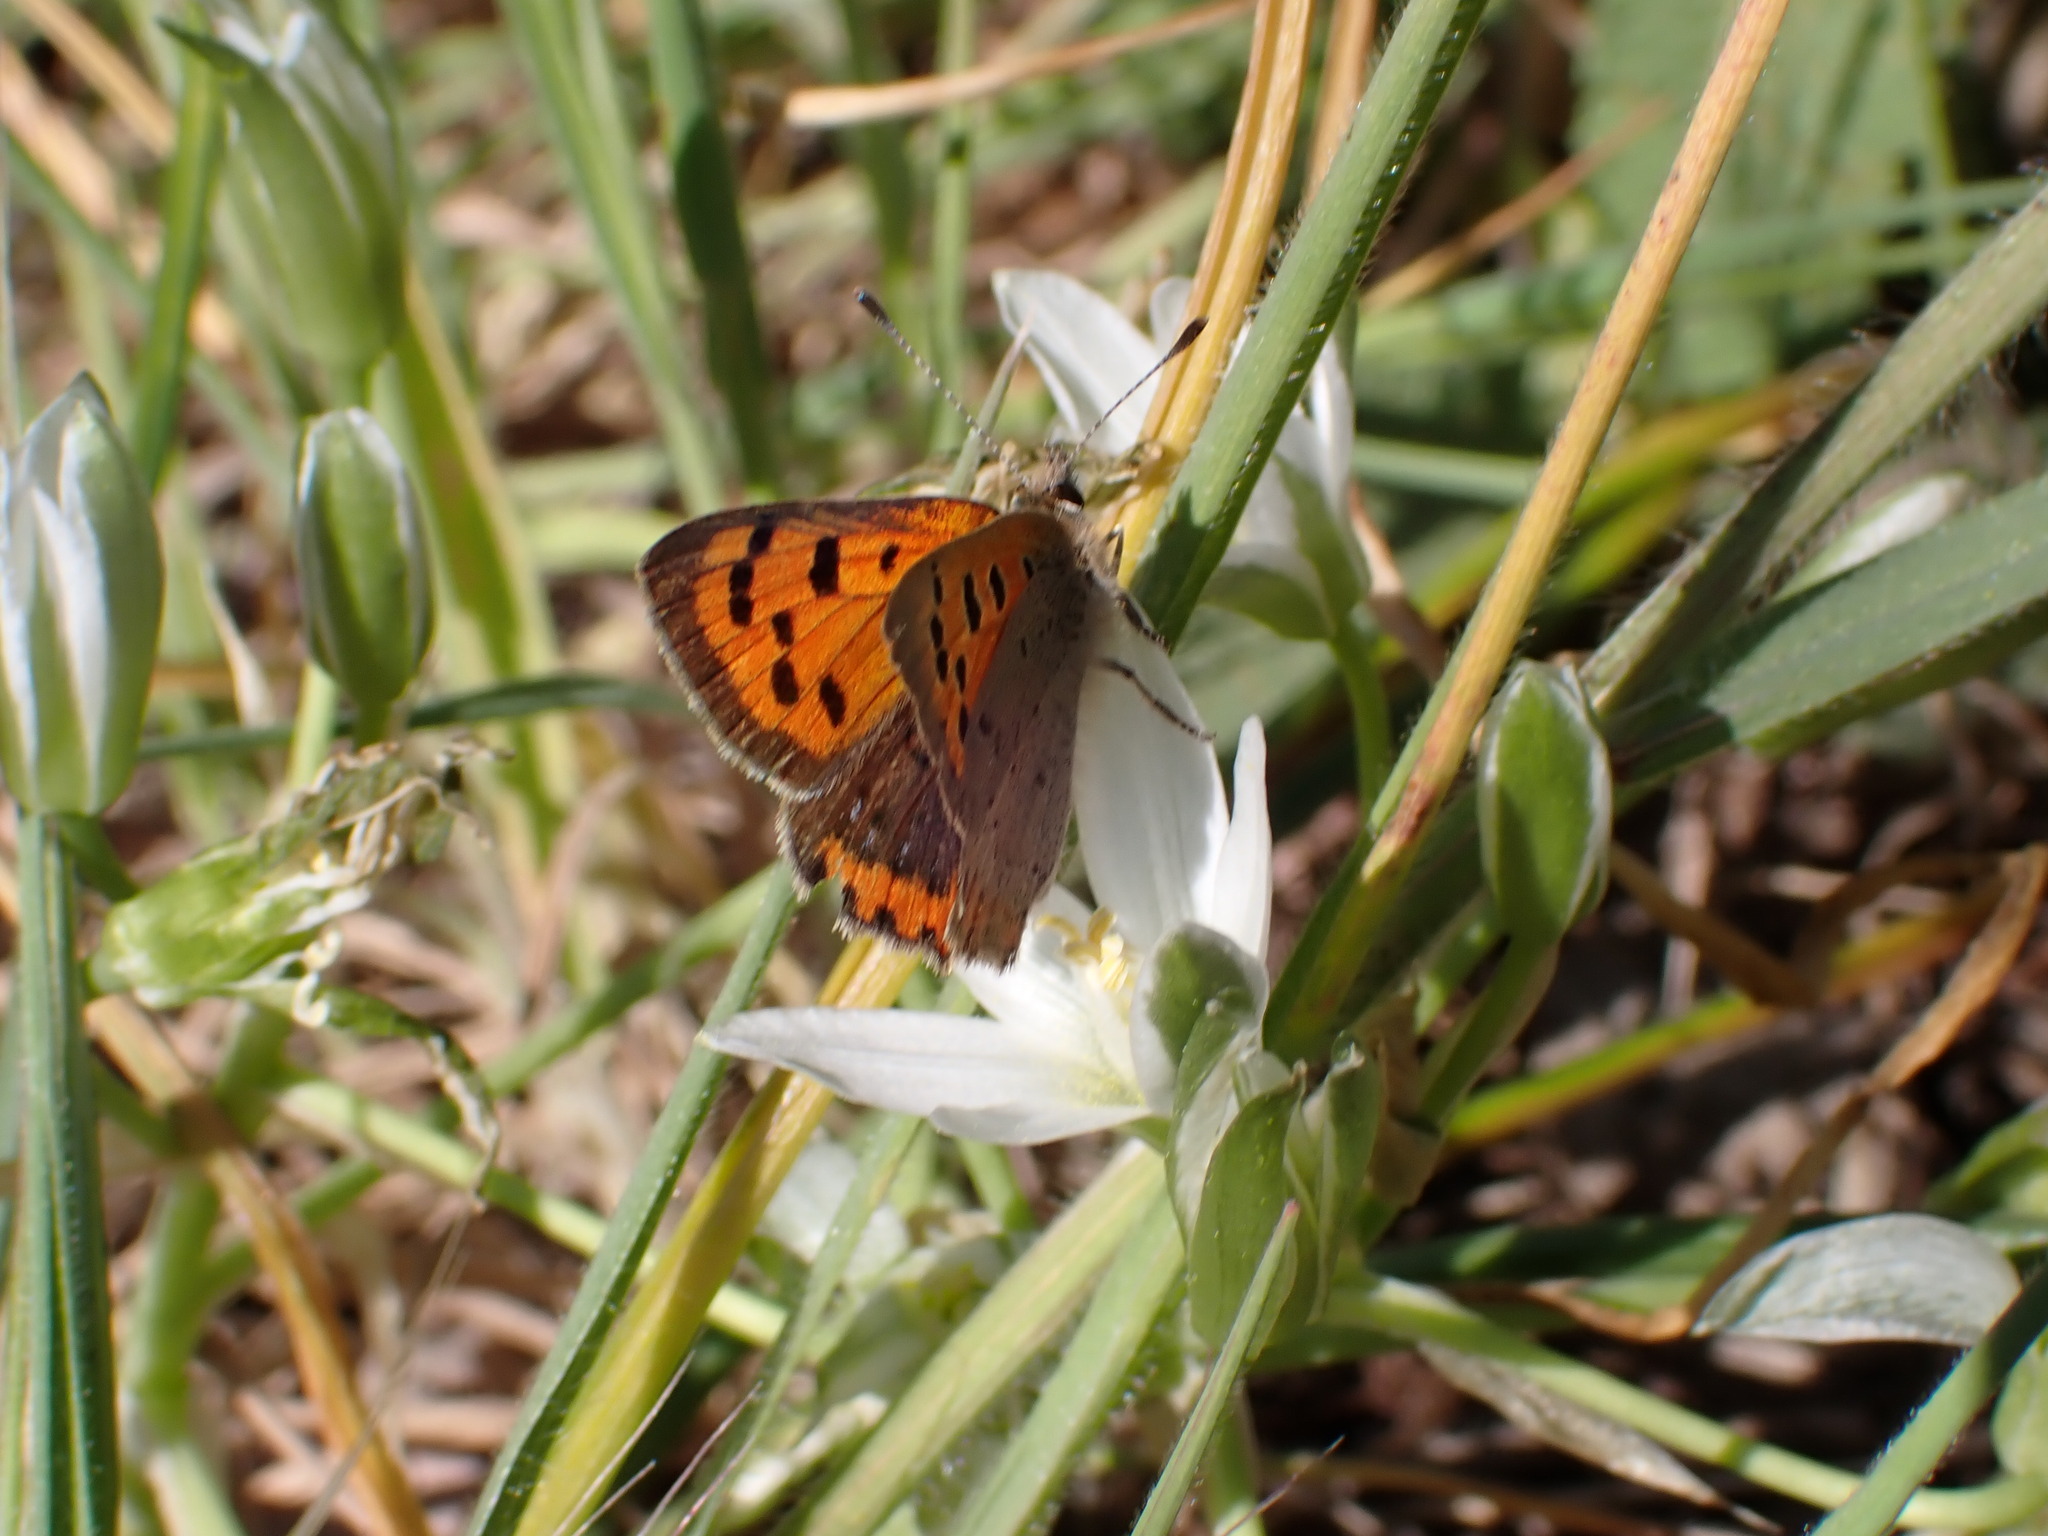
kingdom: Animalia
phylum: Arthropoda
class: Insecta
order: Lepidoptera
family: Lycaenidae
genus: Lycaena
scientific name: Lycaena phlaeas
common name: Small copper
